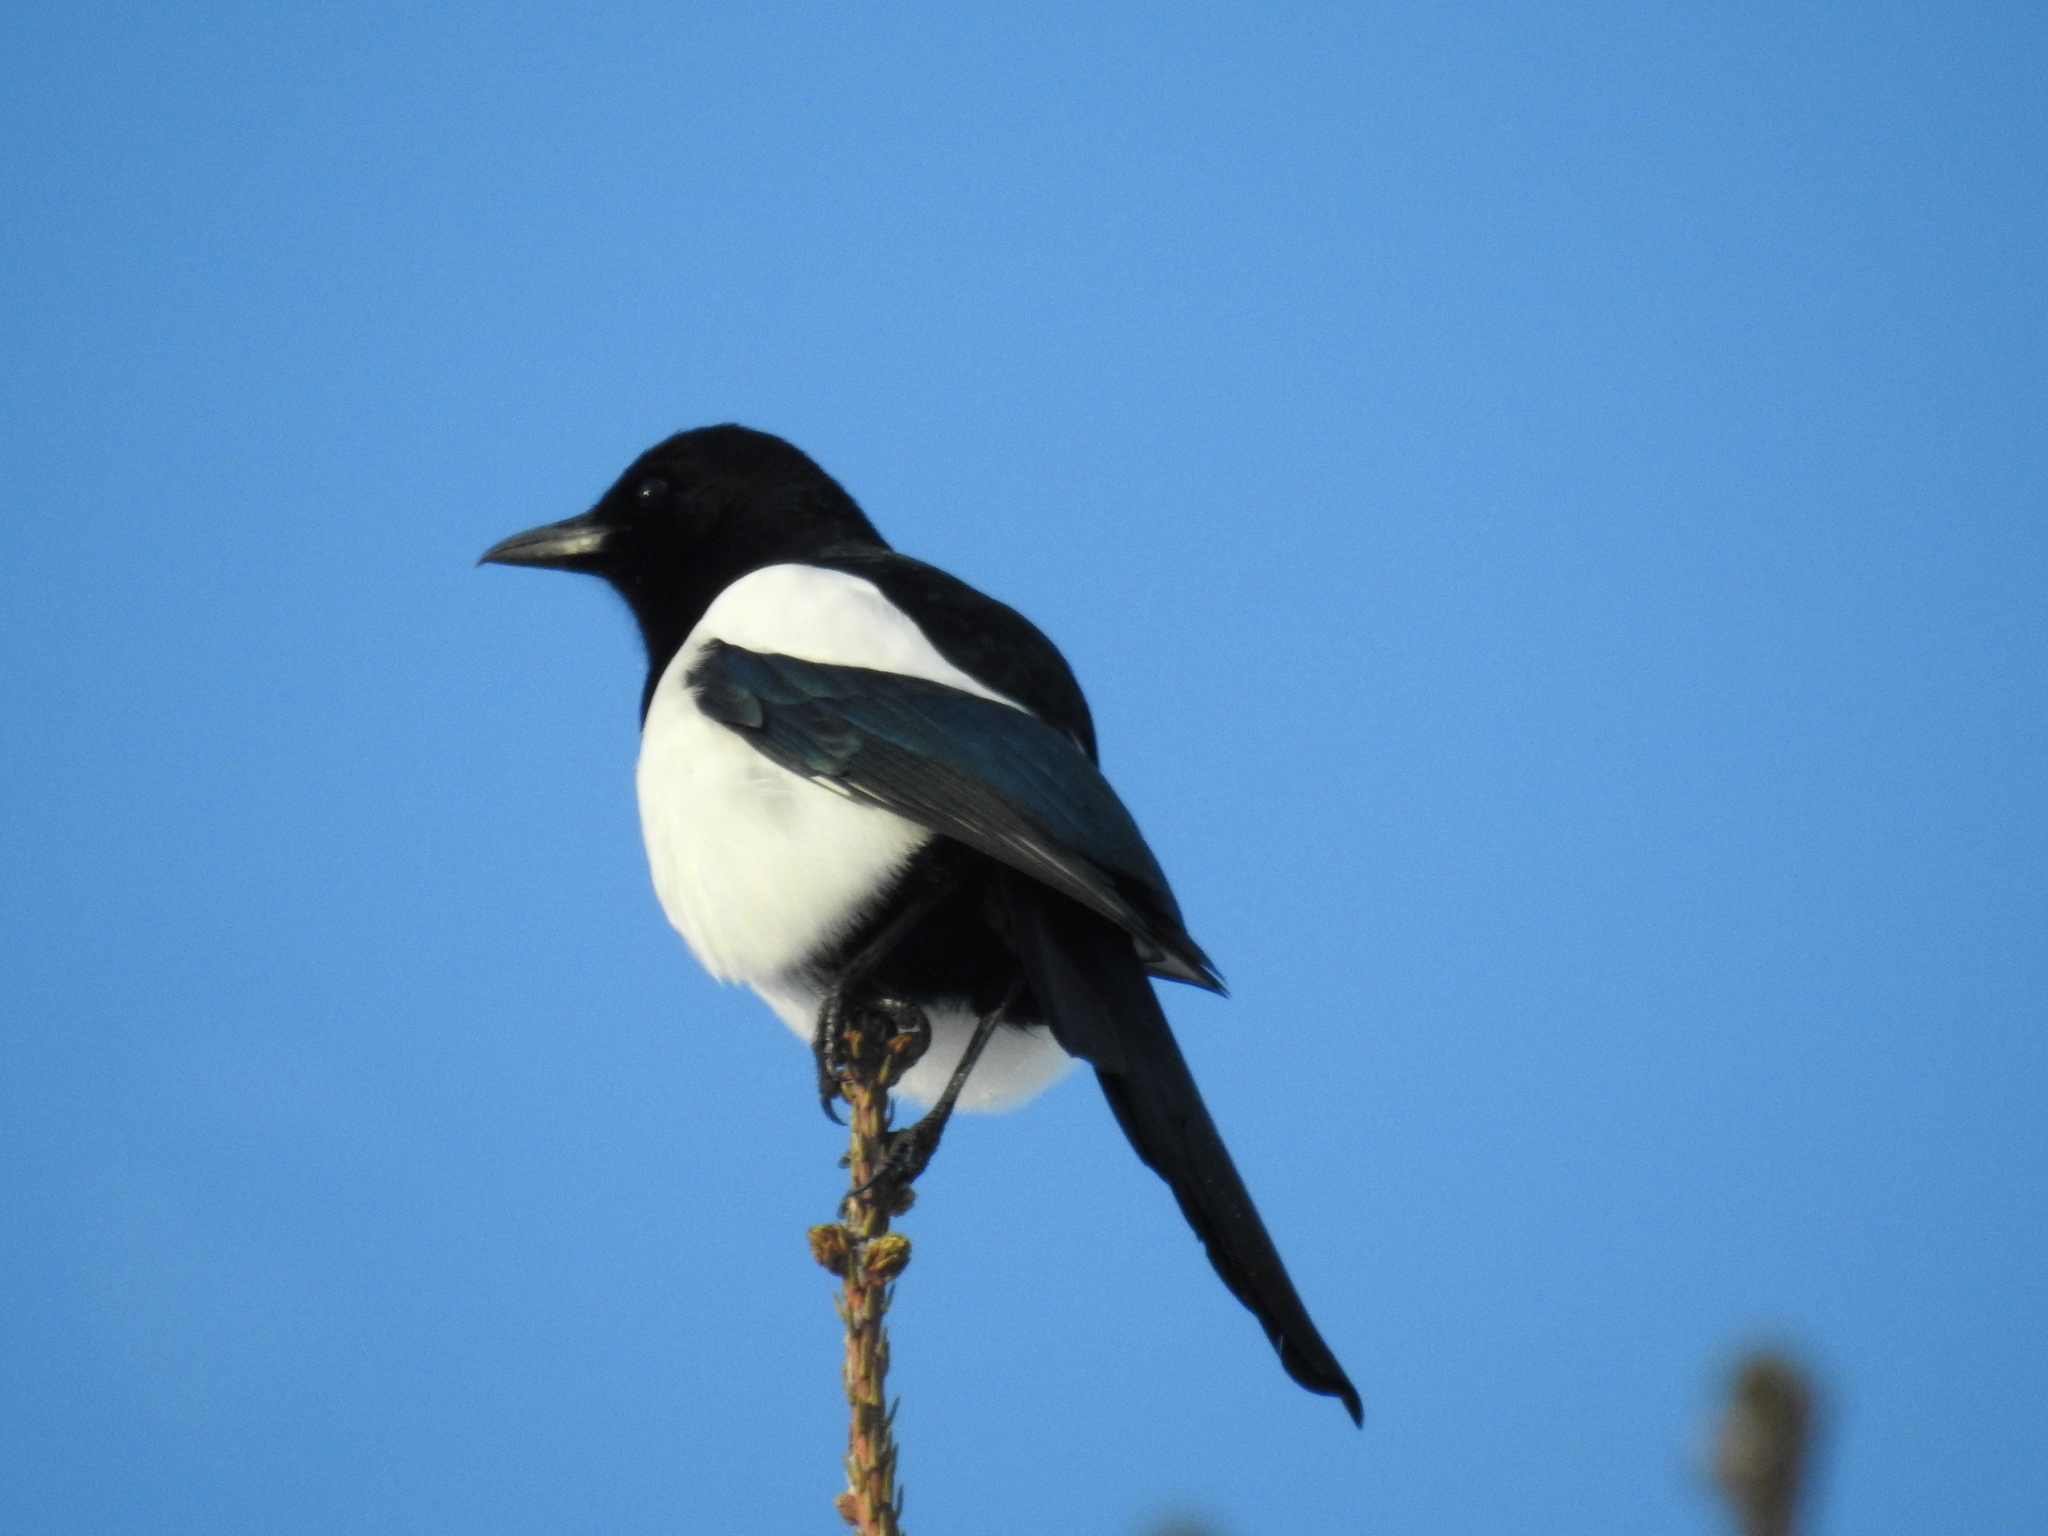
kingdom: Animalia
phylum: Chordata
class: Aves
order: Passeriformes
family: Corvidae
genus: Pica
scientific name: Pica pica
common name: Eurasian magpie
